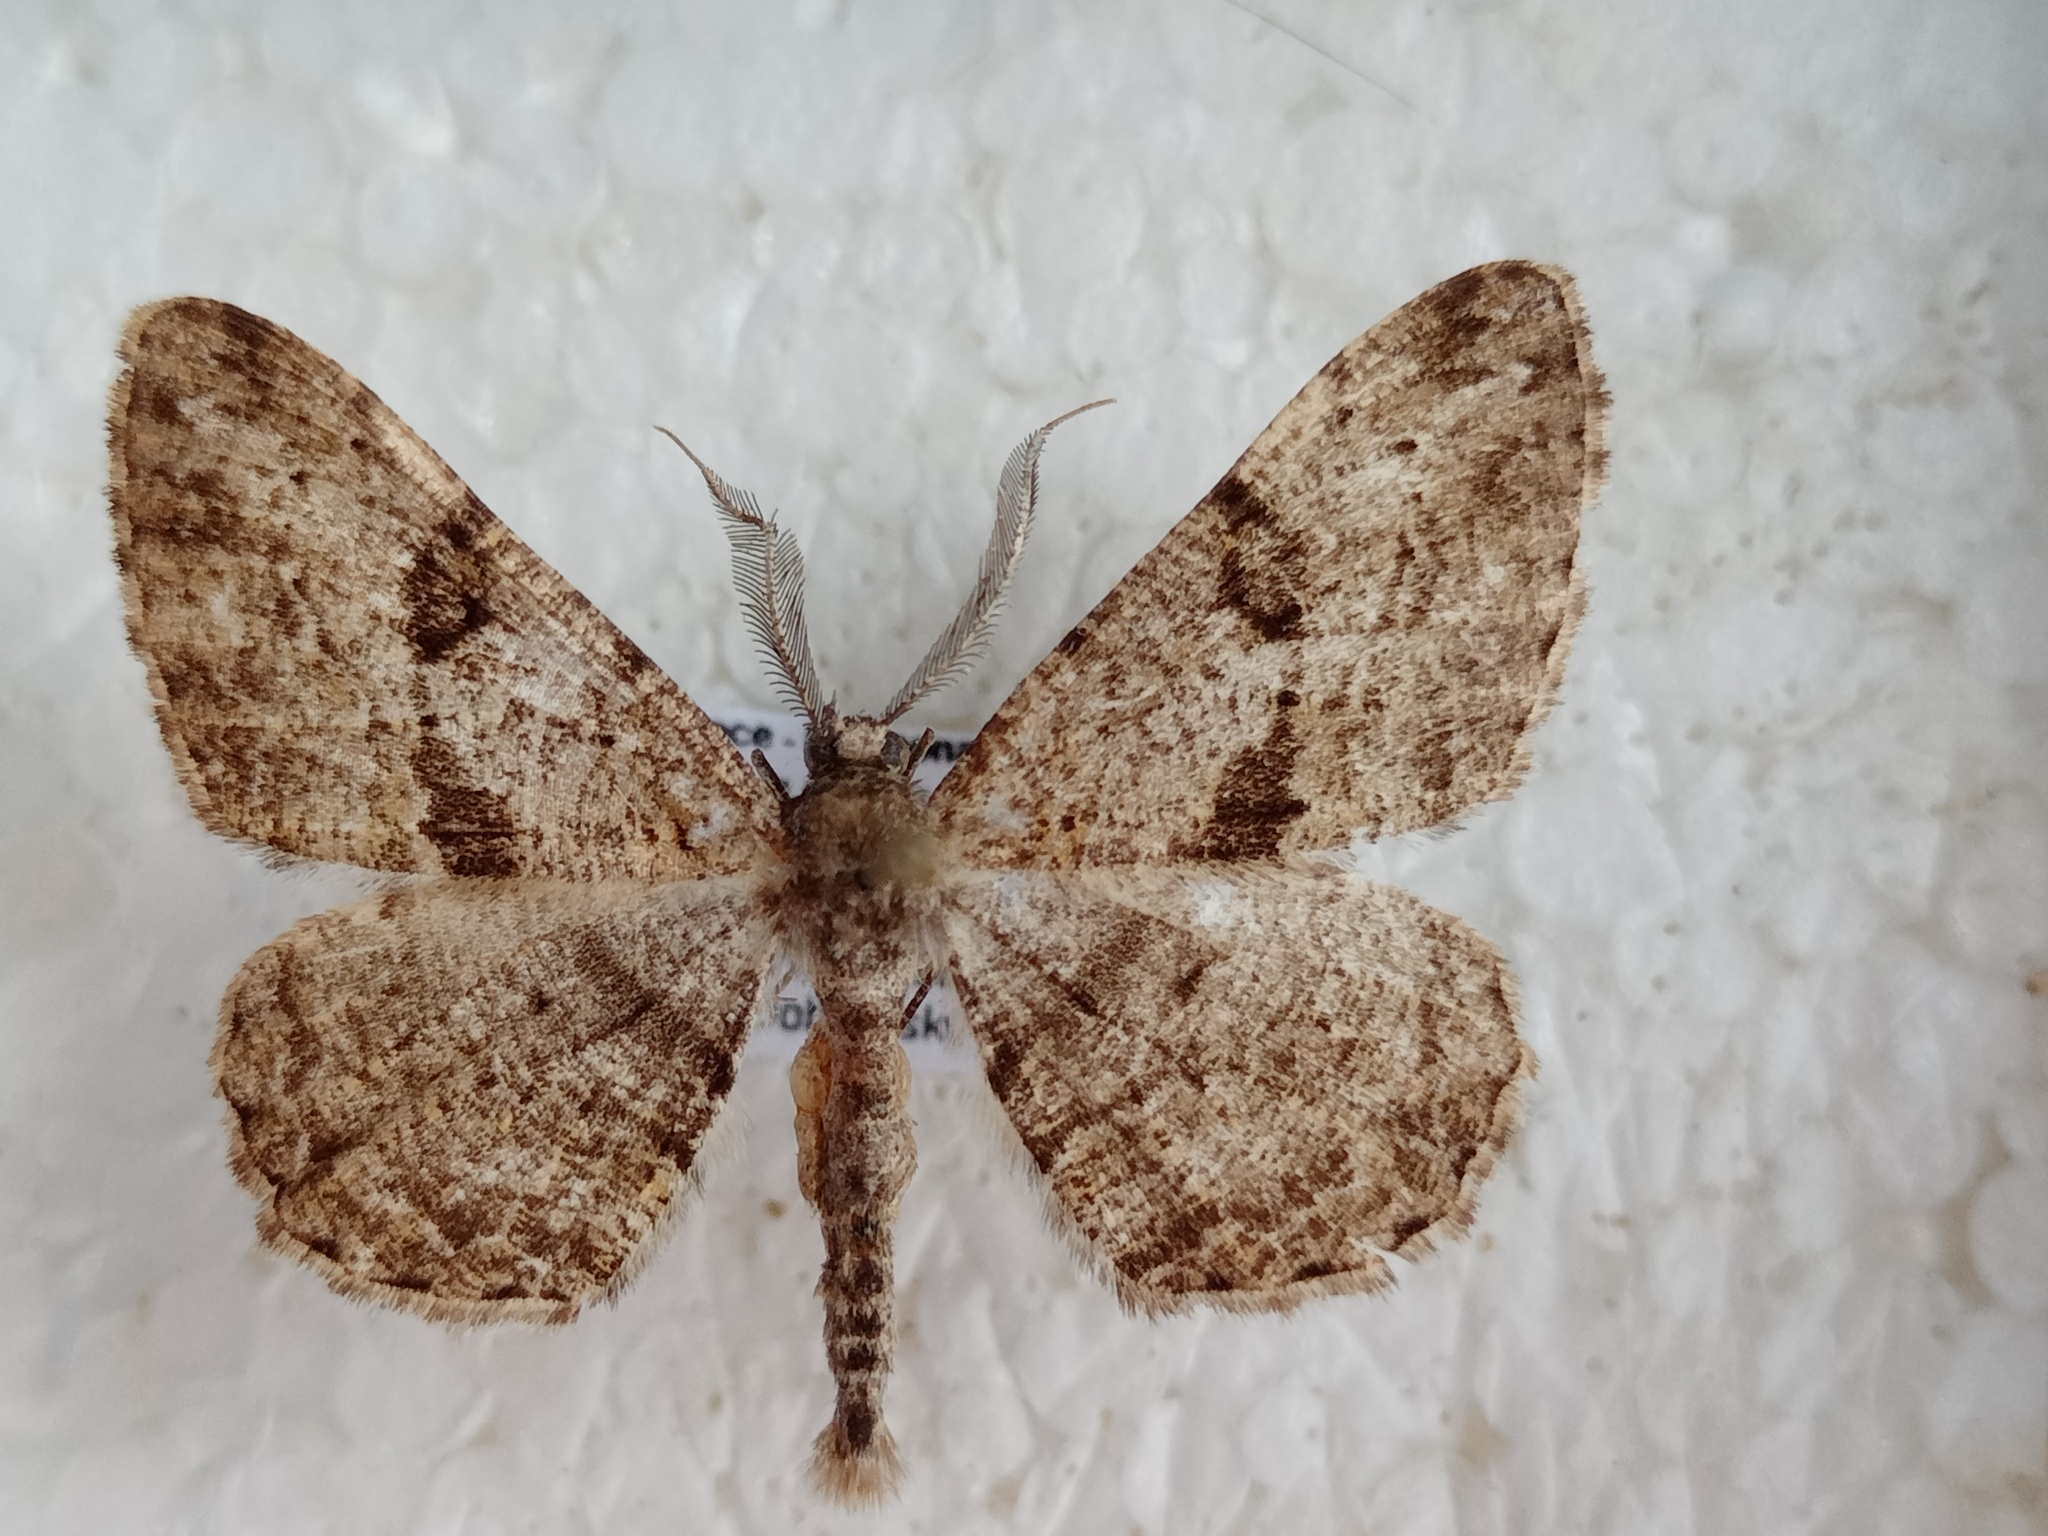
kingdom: Animalia
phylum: Arthropoda
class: Insecta
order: Lepidoptera
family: Geometridae
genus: Peribatodes
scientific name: Peribatodes rhomboidaria
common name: Willow beauty
